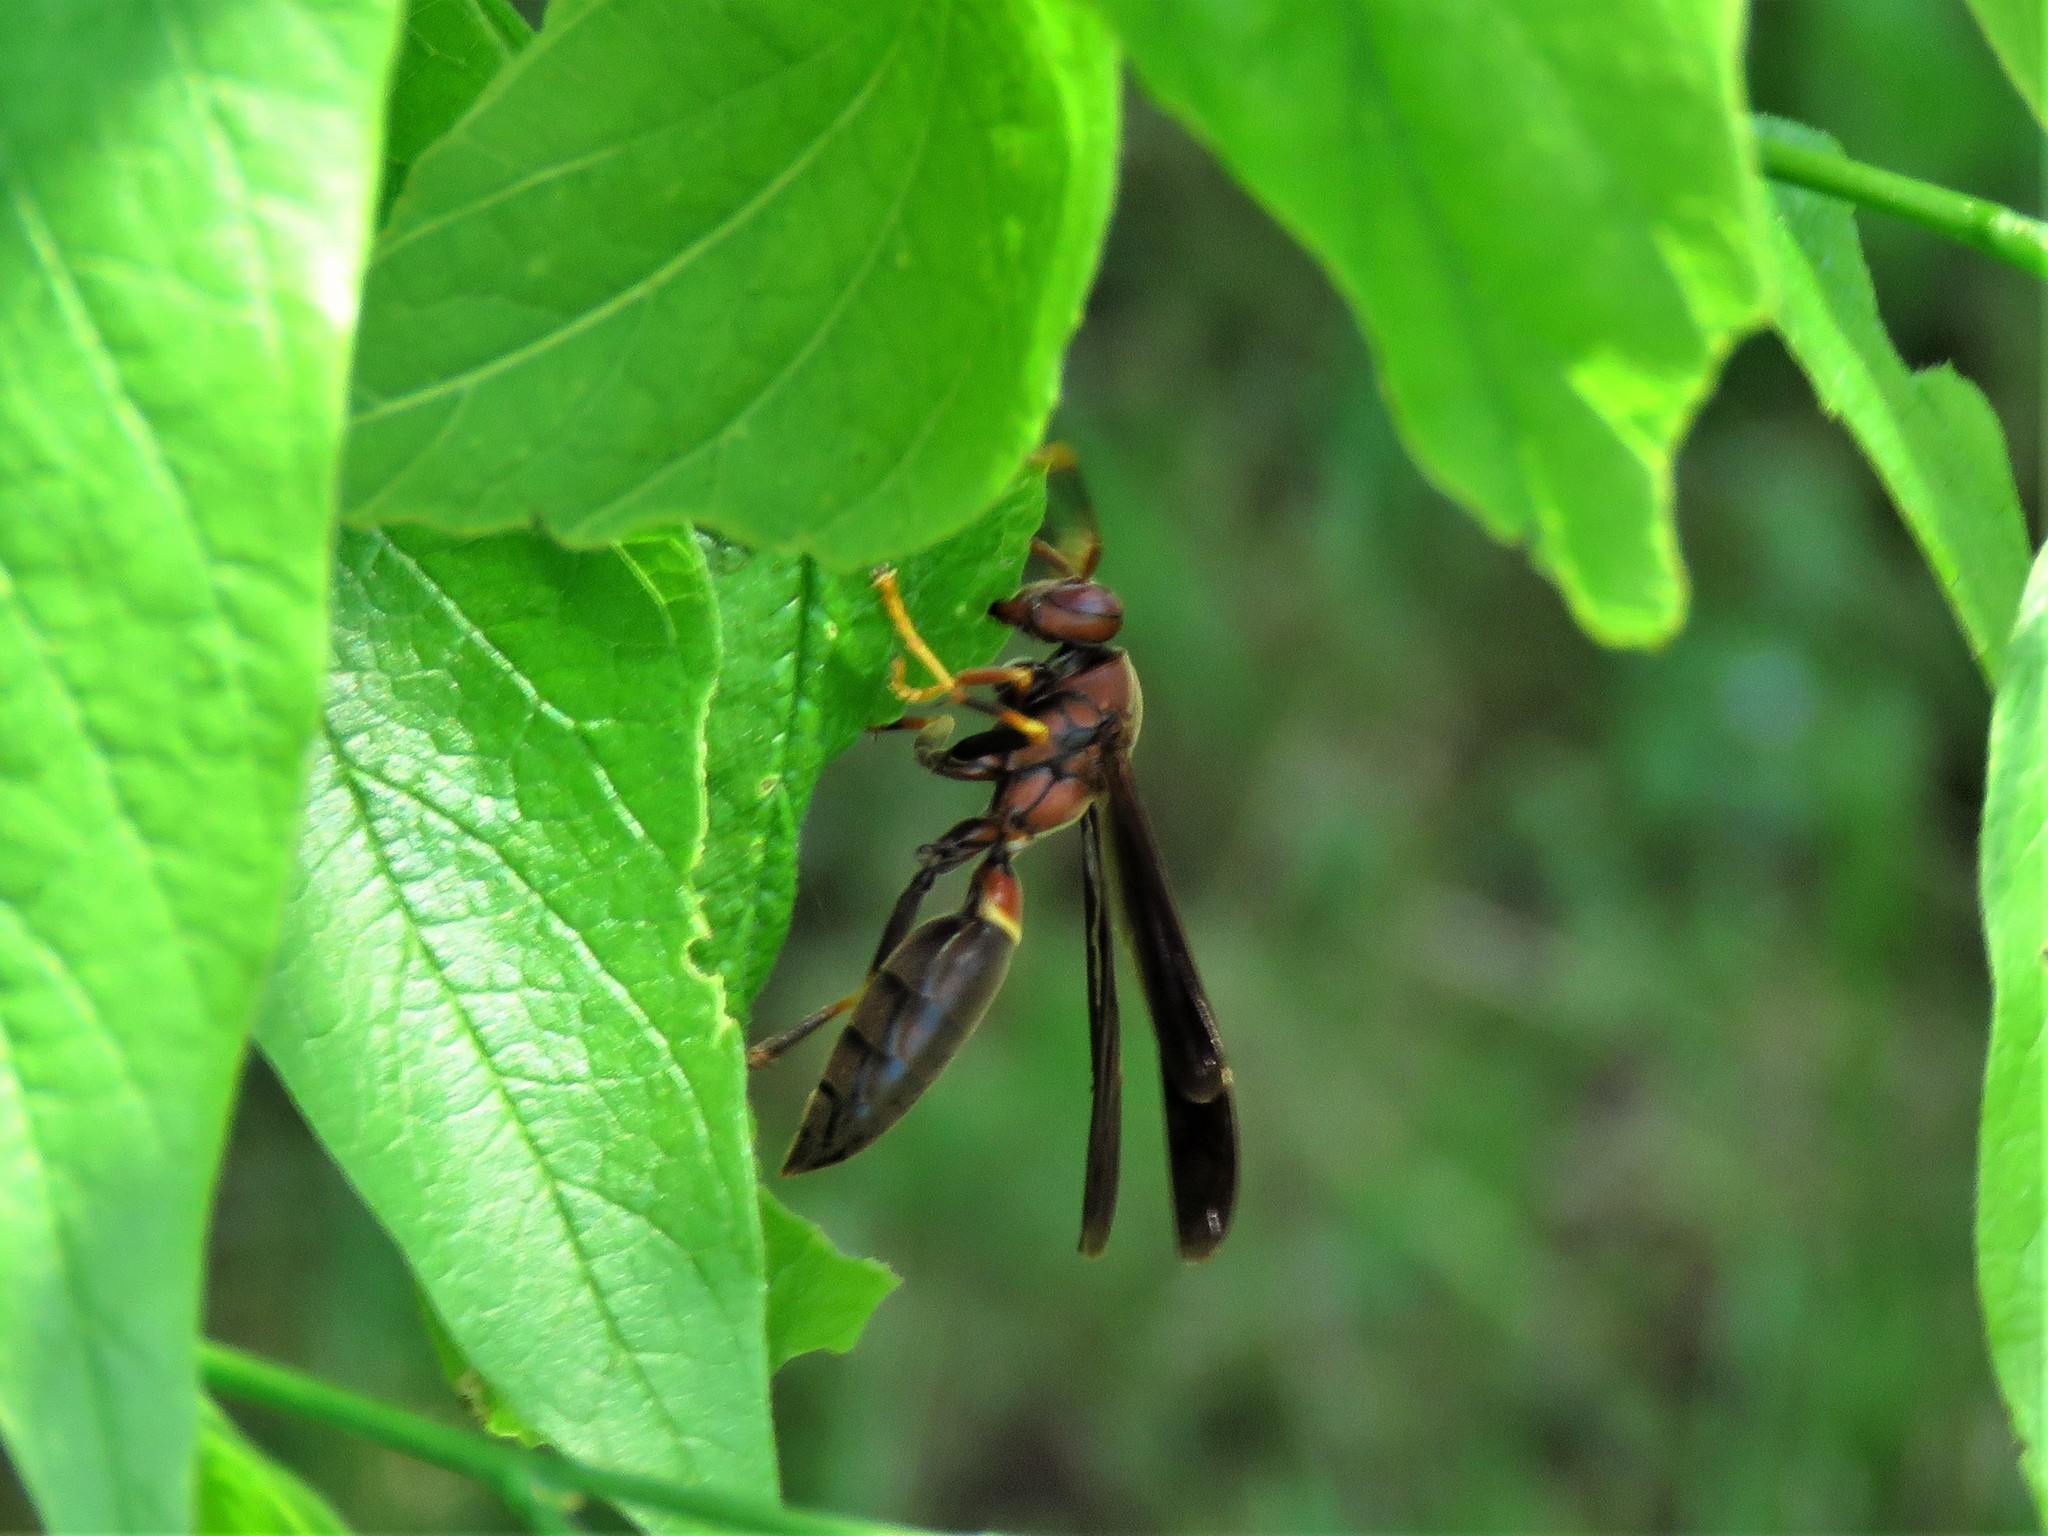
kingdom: Animalia
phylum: Arthropoda
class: Insecta
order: Hymenoptera
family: Eumenidae
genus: Polistes
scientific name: Polistes annularis
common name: Ringed paper wasp
